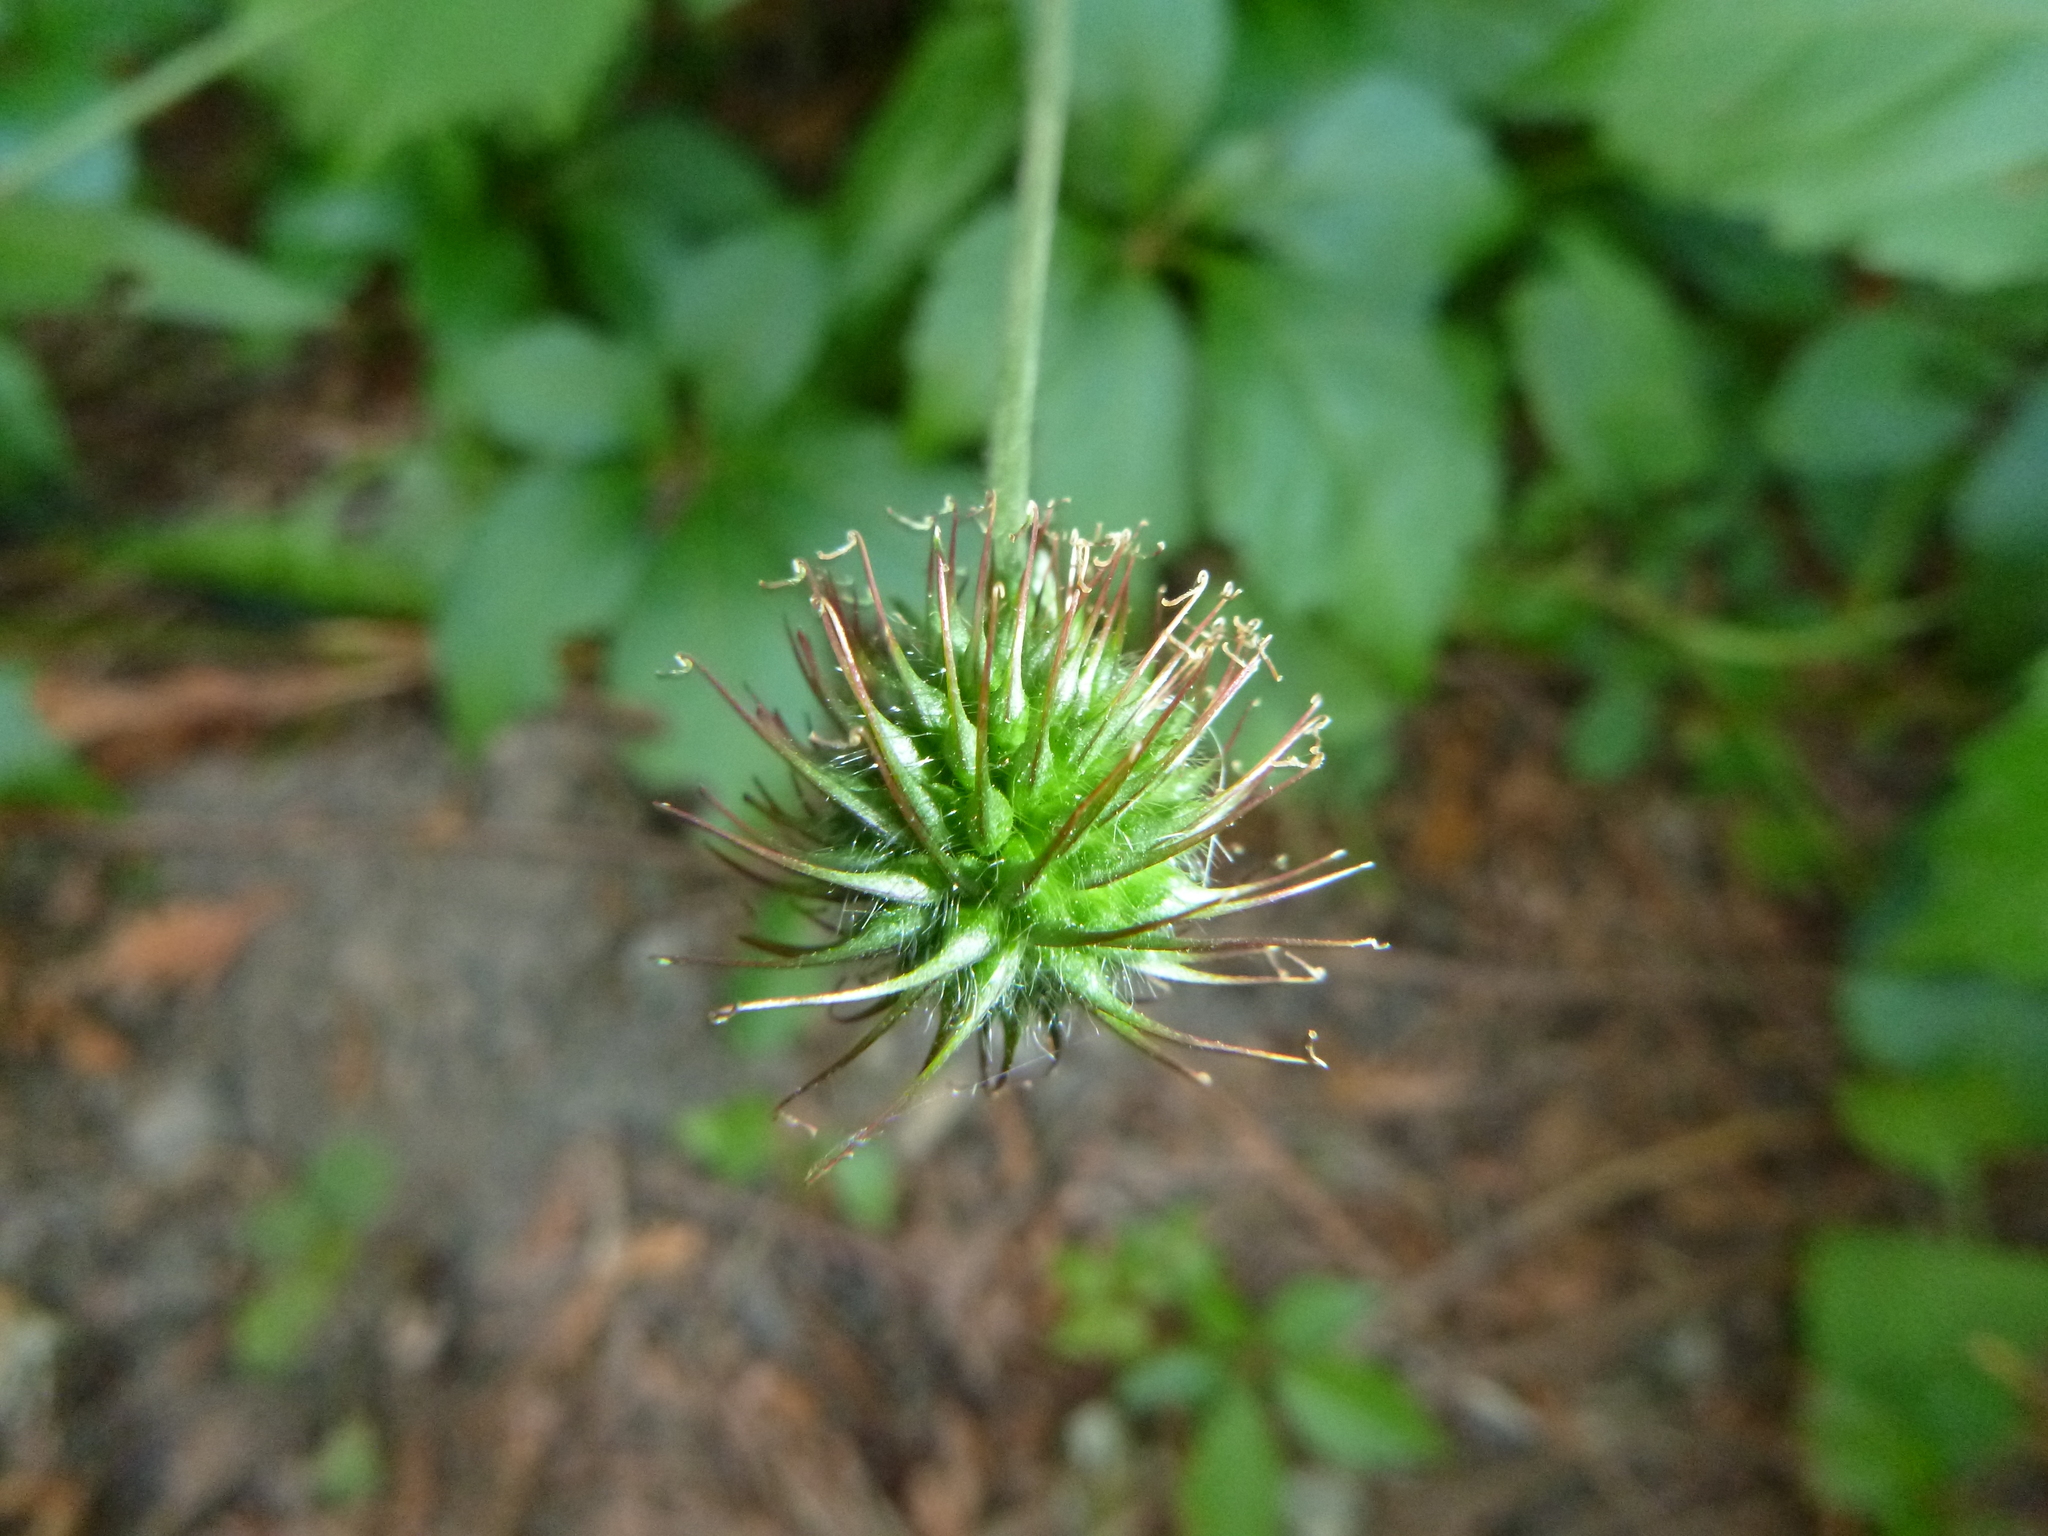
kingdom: Plantae
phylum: Tracheophyta
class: Magnoliopsida
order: Rosales
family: Rosaceae
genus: Geum
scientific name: Geum canadense
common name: White avens
